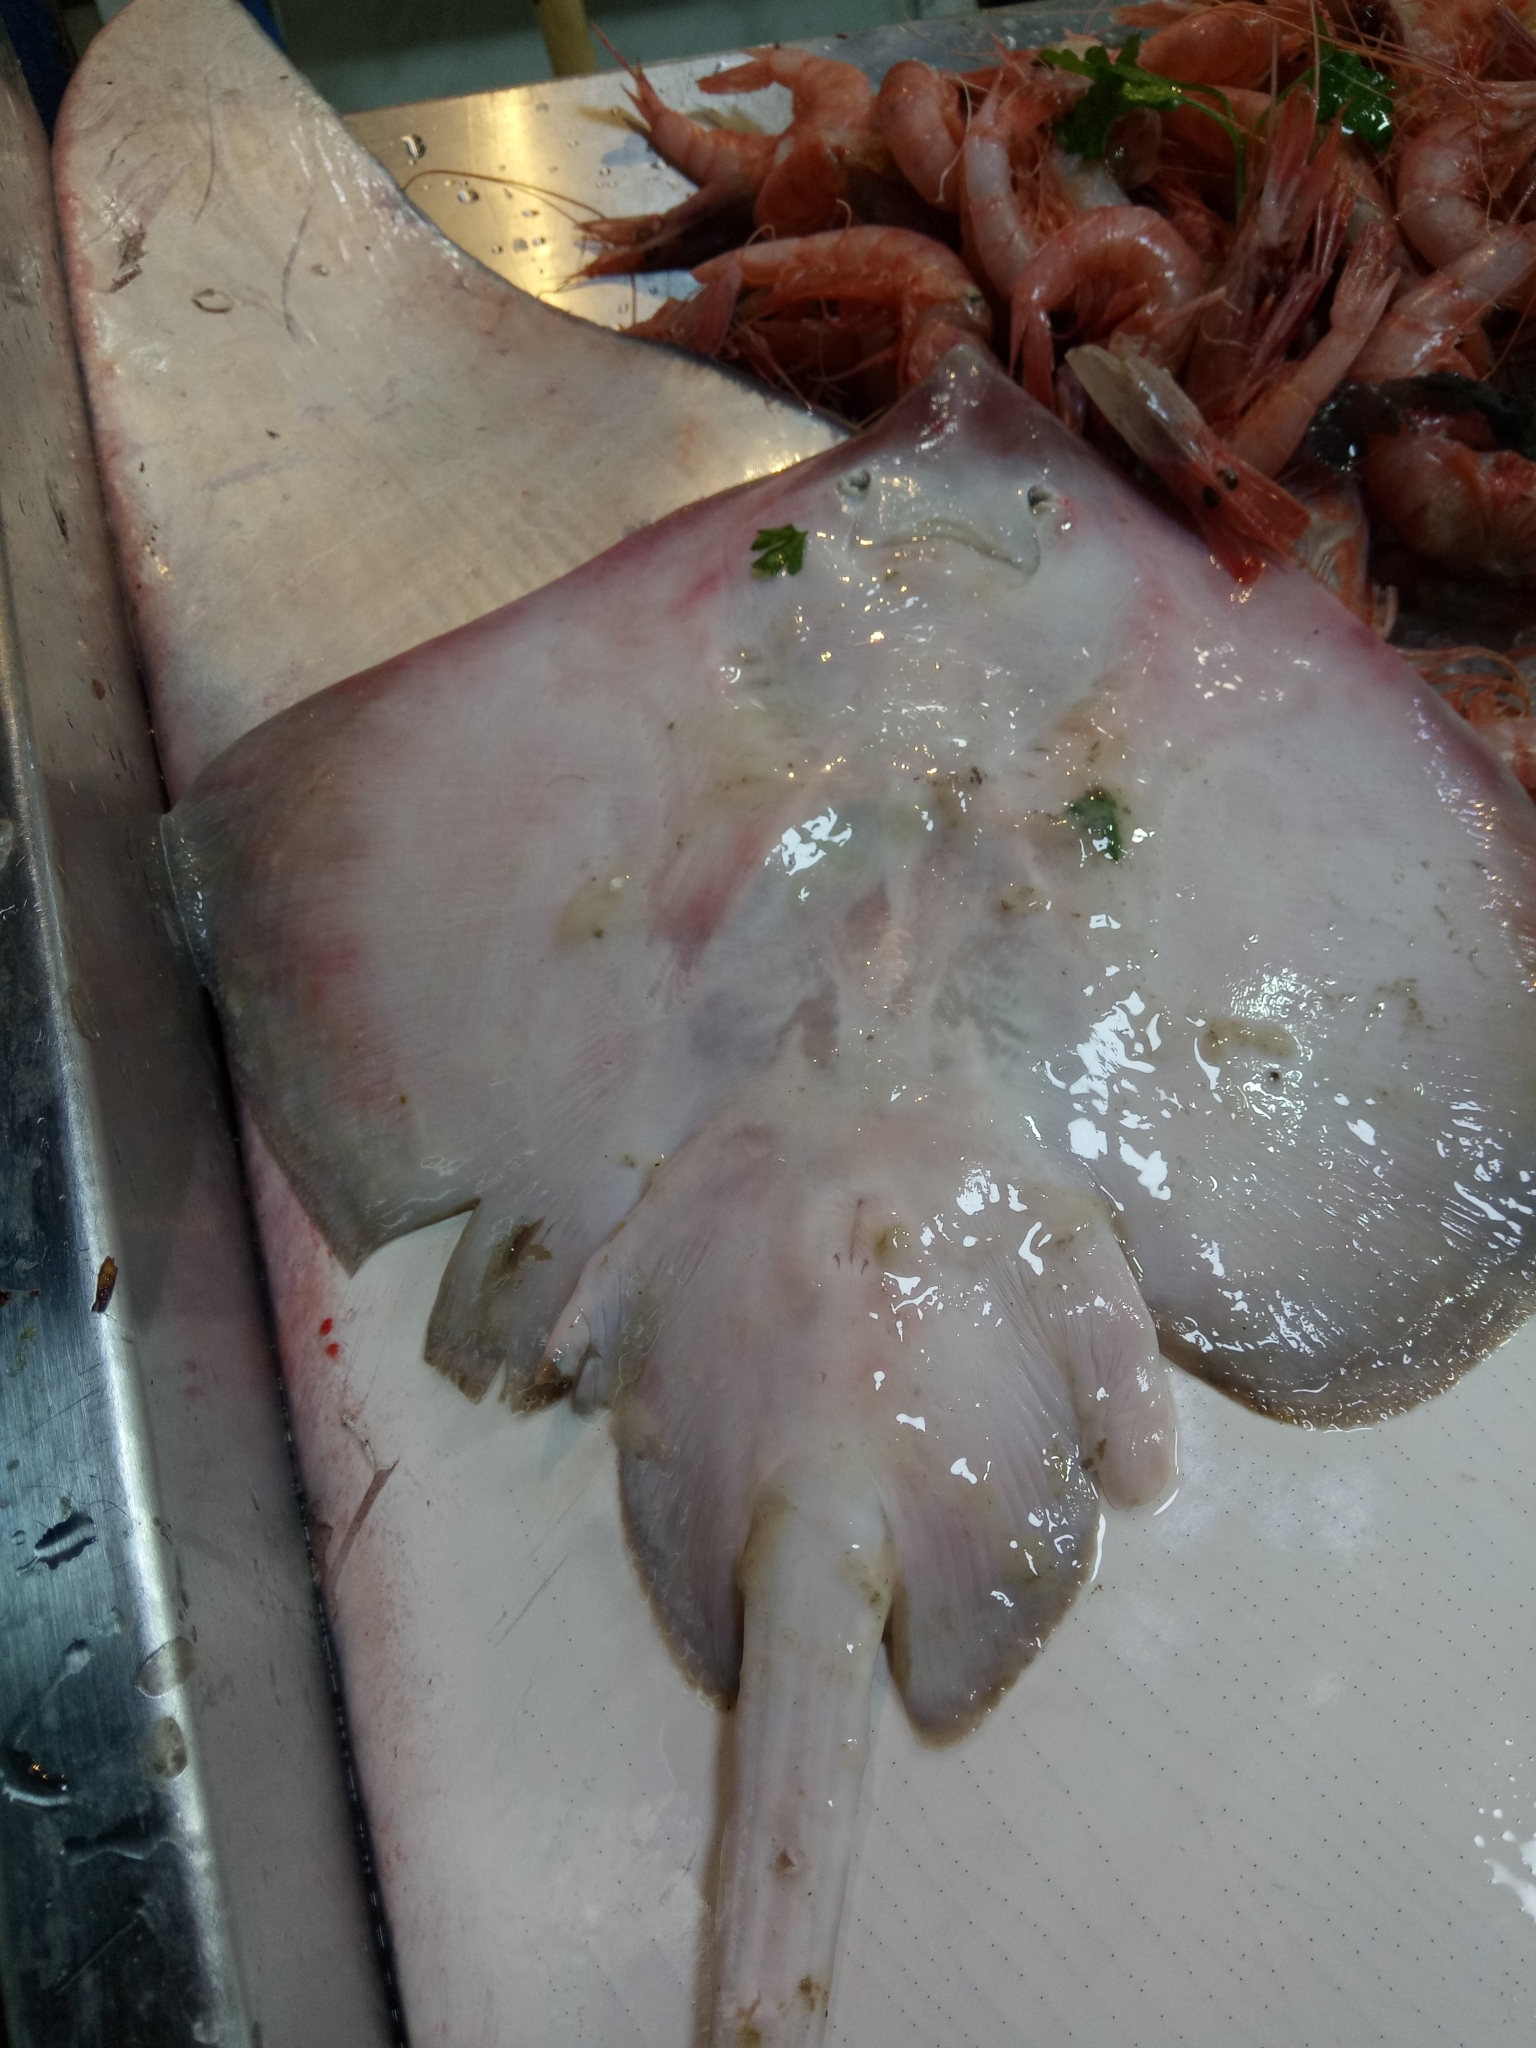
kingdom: Animalia
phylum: Chordata
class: Elasmobranchii
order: Rajiformes
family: Rajidae
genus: Raja
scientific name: Raja brachyura
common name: Blonde ray
